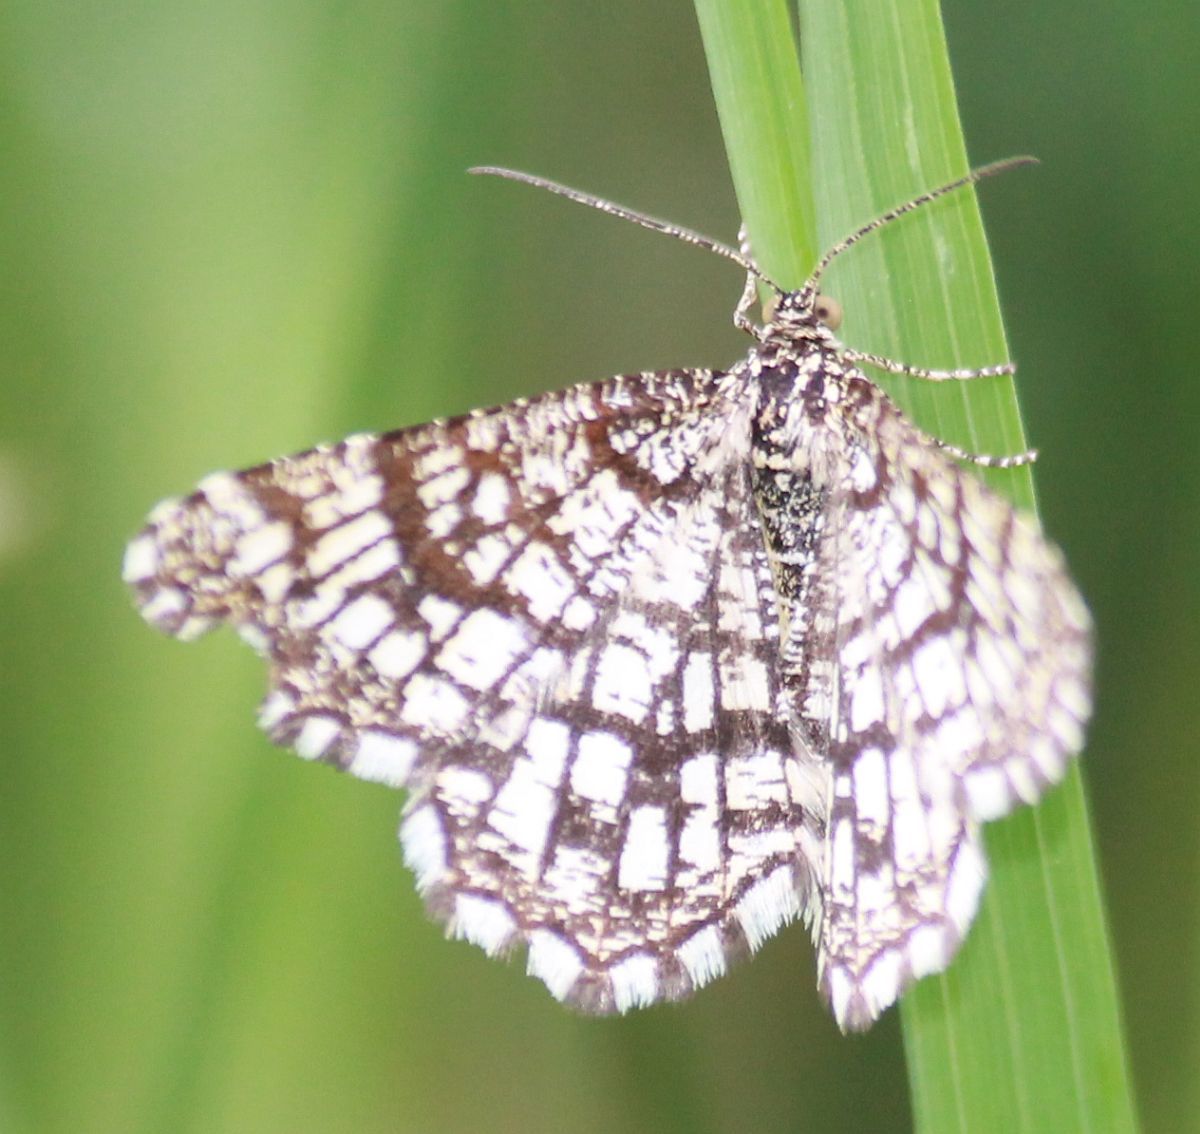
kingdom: Animalia
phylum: Arthropoda
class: Insecta
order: Lepidoptera
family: Geometridae
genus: Chiasmia
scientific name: Chiasmia clathrata
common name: Latticed heath
